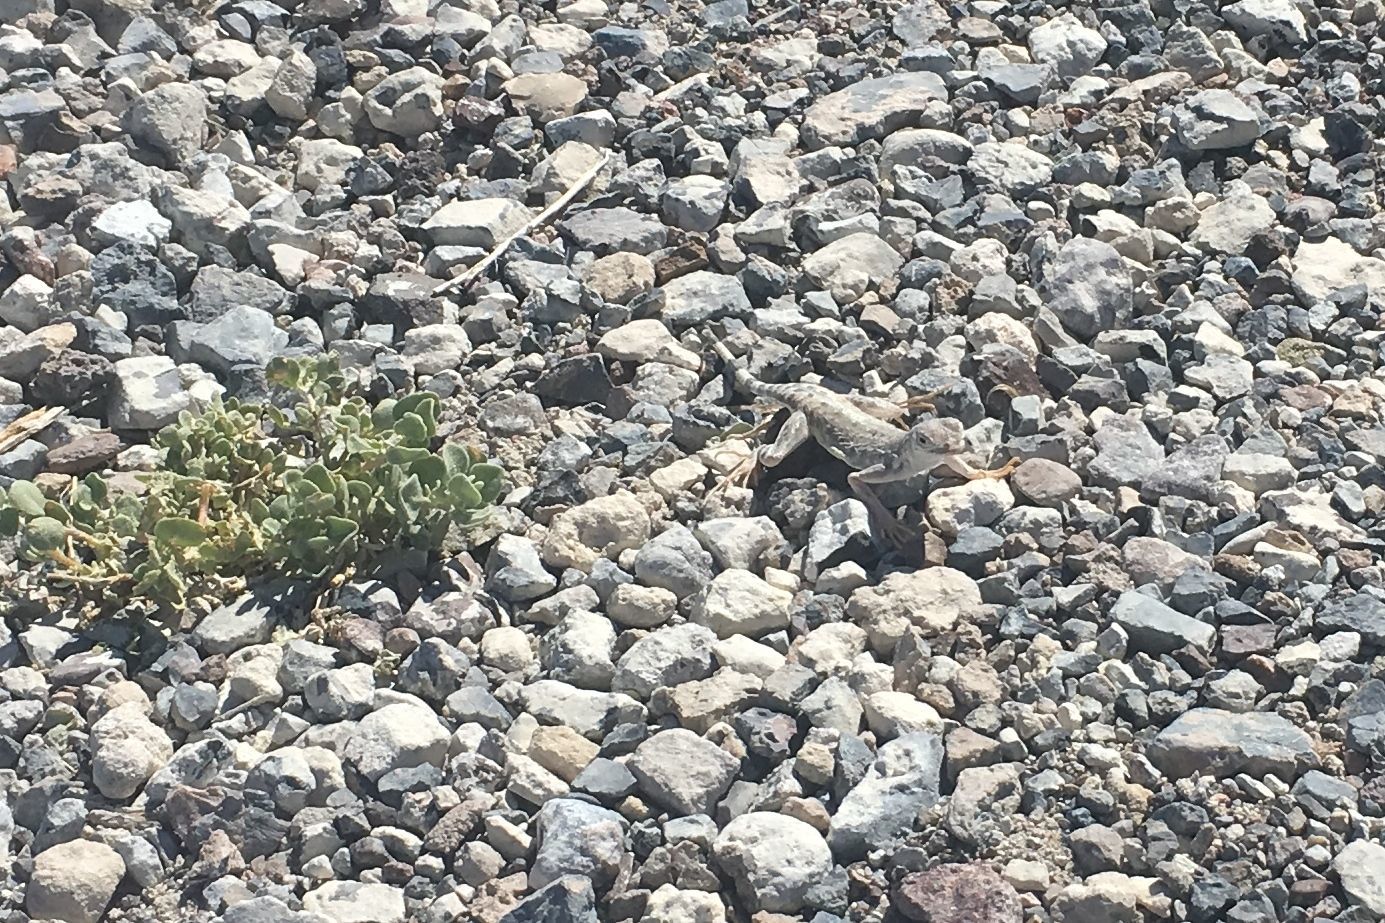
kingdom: Animalia
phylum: Chordata
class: Squamata
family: Phrynosomatidae
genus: Callisaurus
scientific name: Callisaurus draconoides
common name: Zebra-tailed lizard
